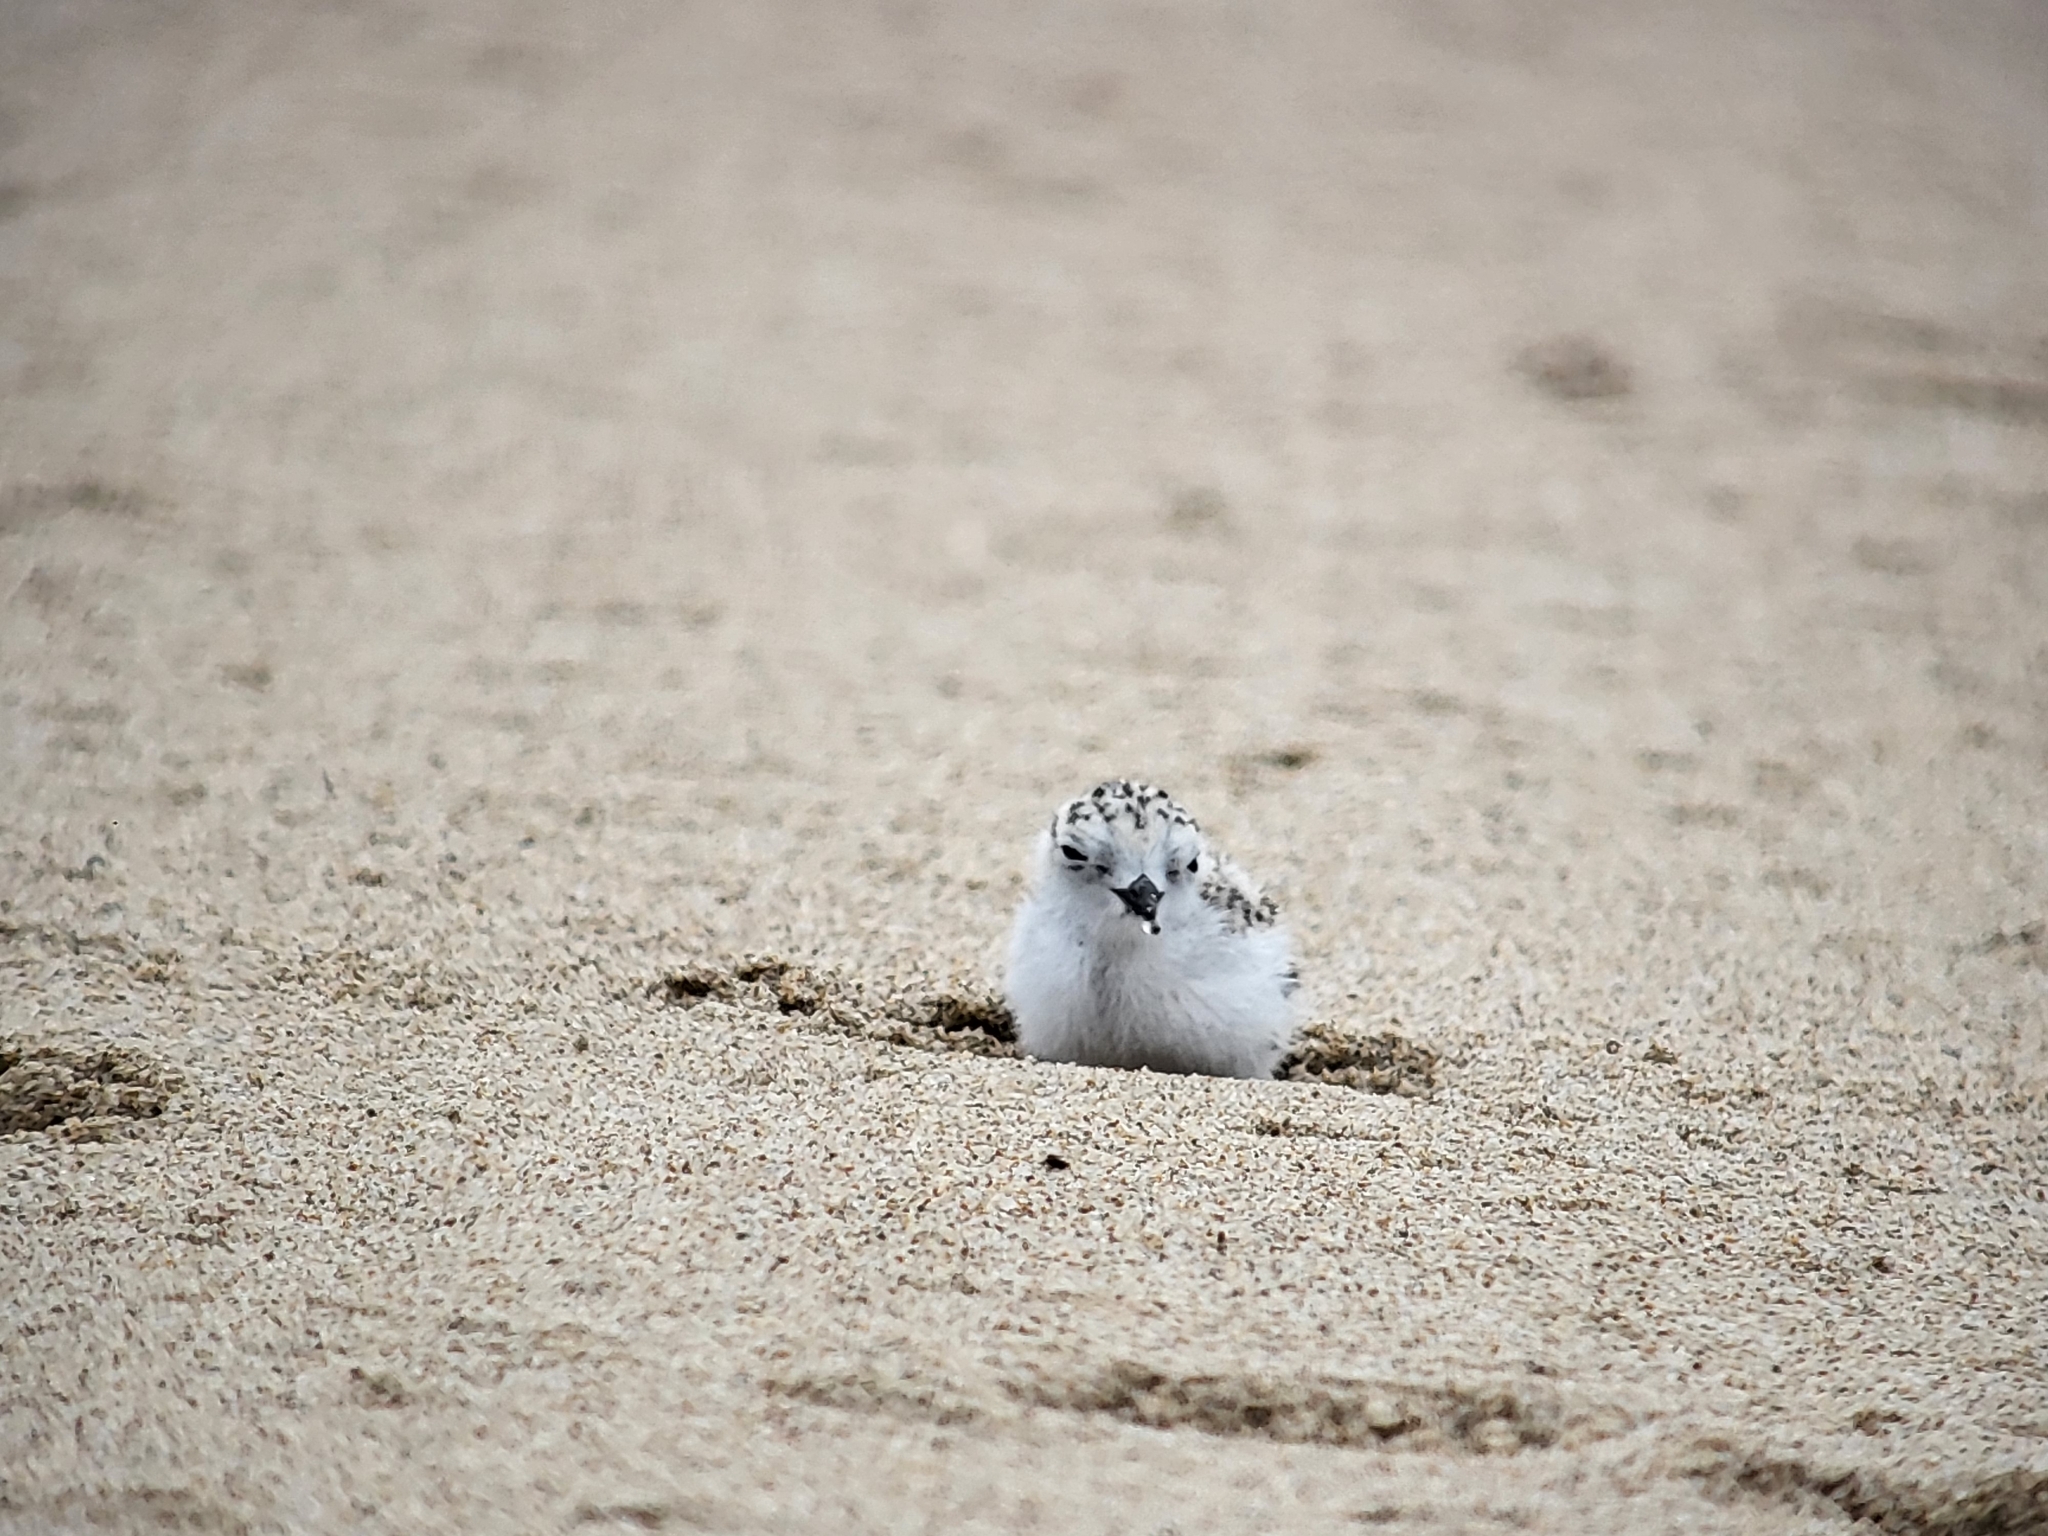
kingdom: Animalia
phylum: Chordata
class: Aves
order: Charadriiformes
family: Charadriidae
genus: Anarhynchus
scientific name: Anarhynchus
